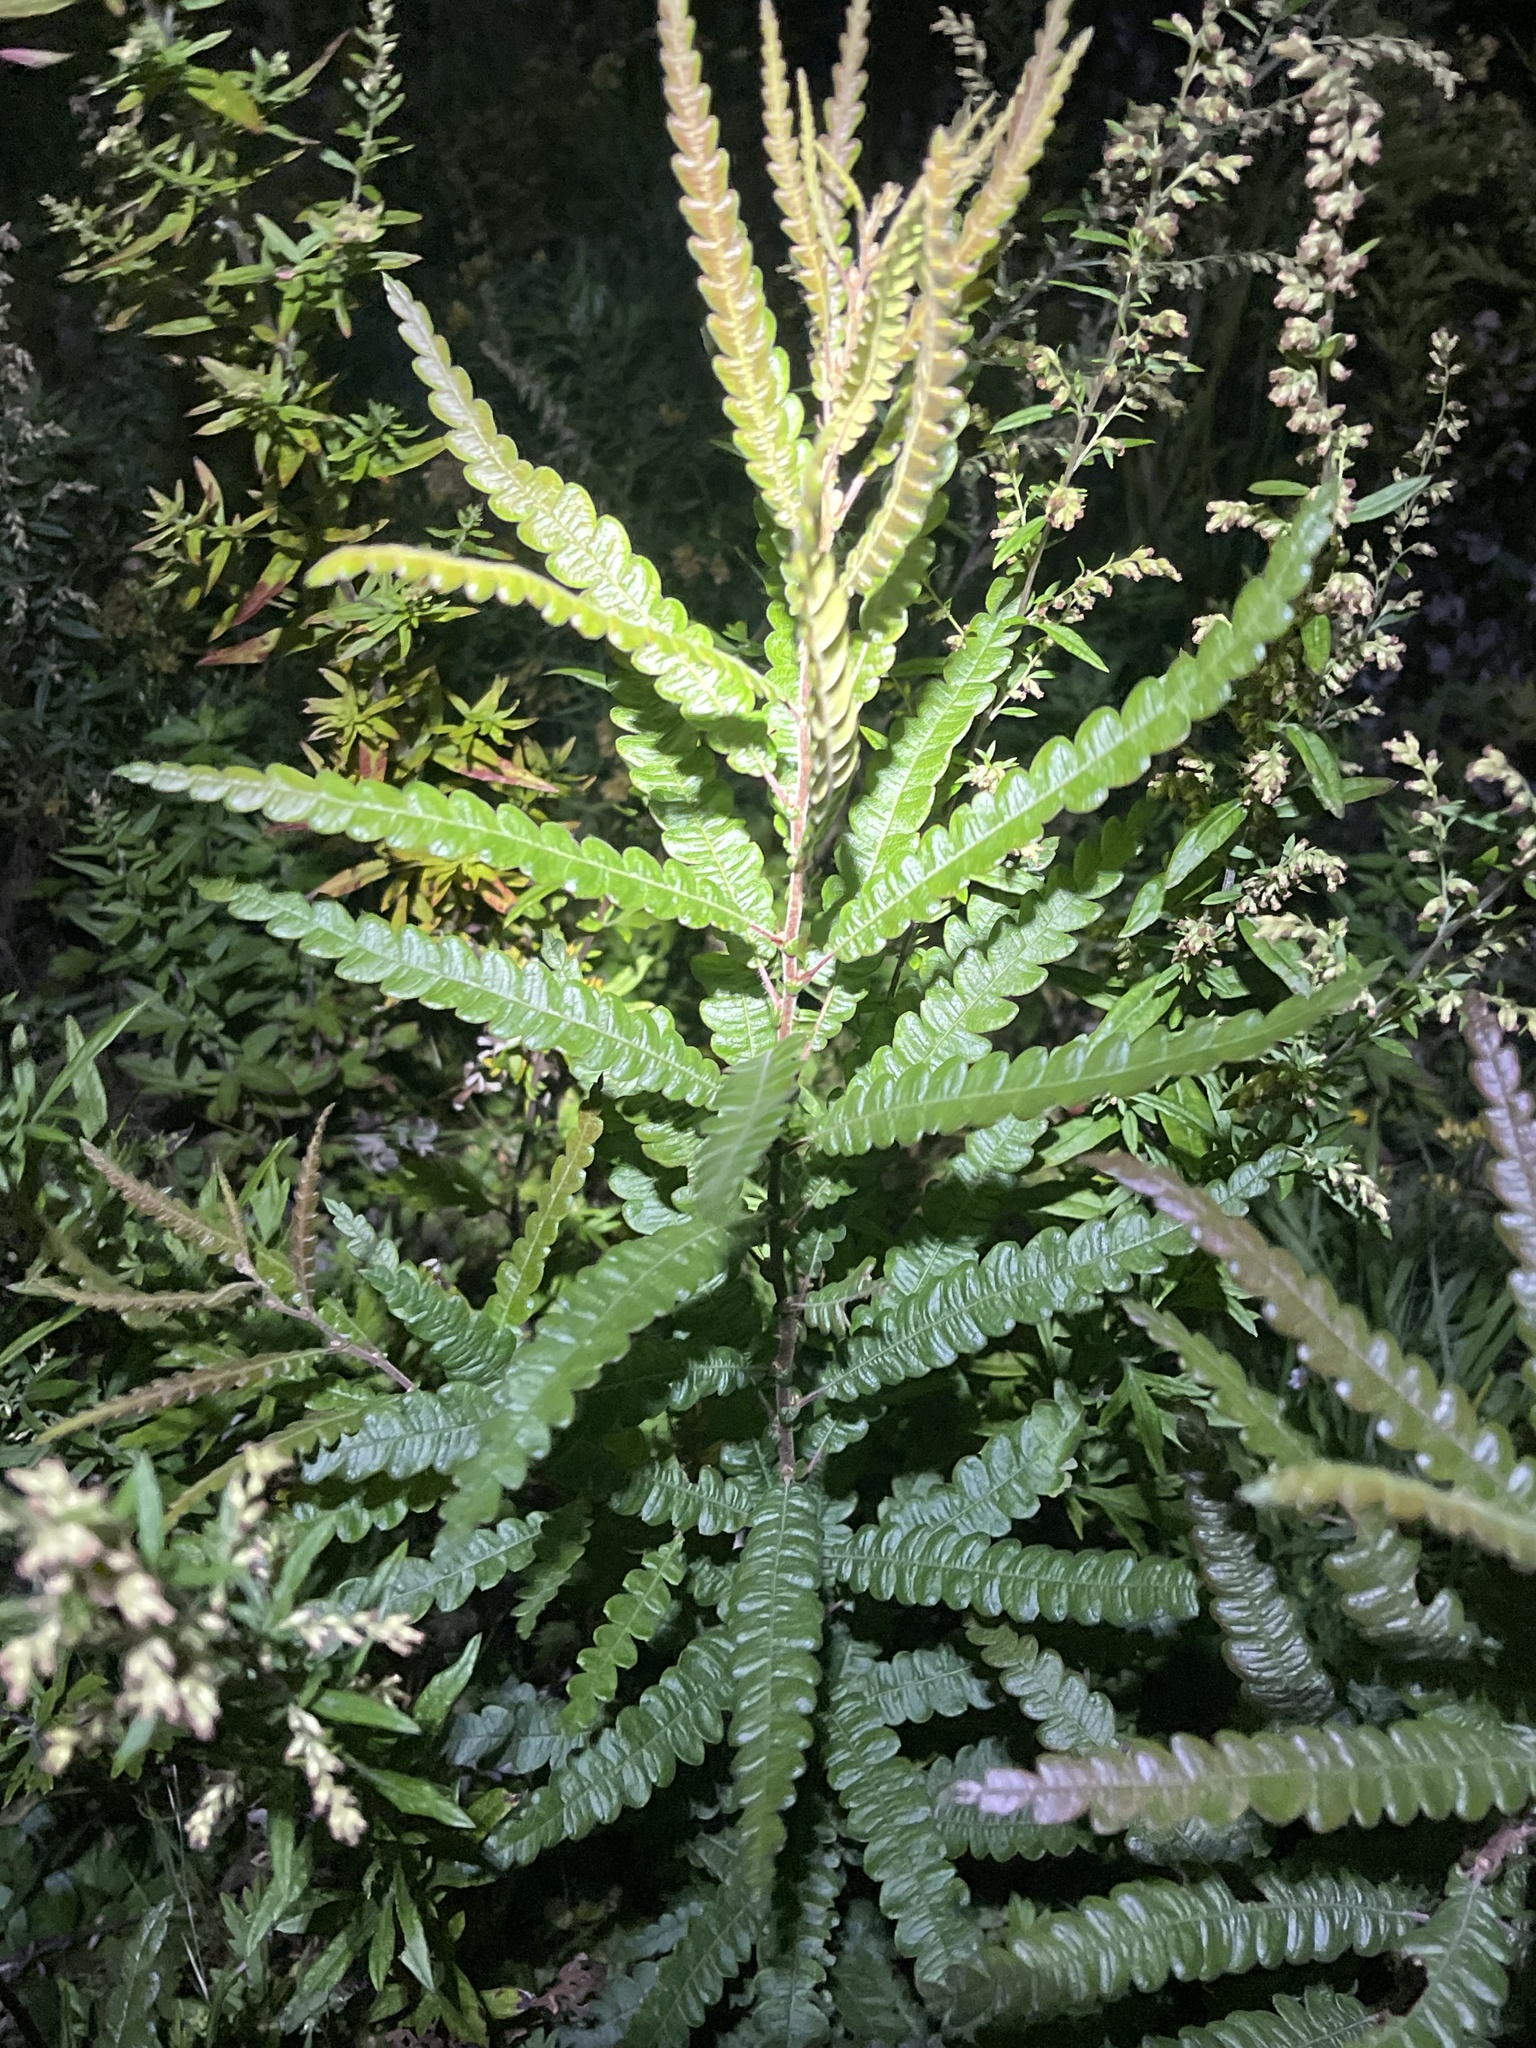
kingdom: Plantae
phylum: Tracheophyta
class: Magnoliopsida
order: Fagales
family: Myricaceae
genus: Comptonia
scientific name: Comptonia peregrina
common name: Sweet-fern
